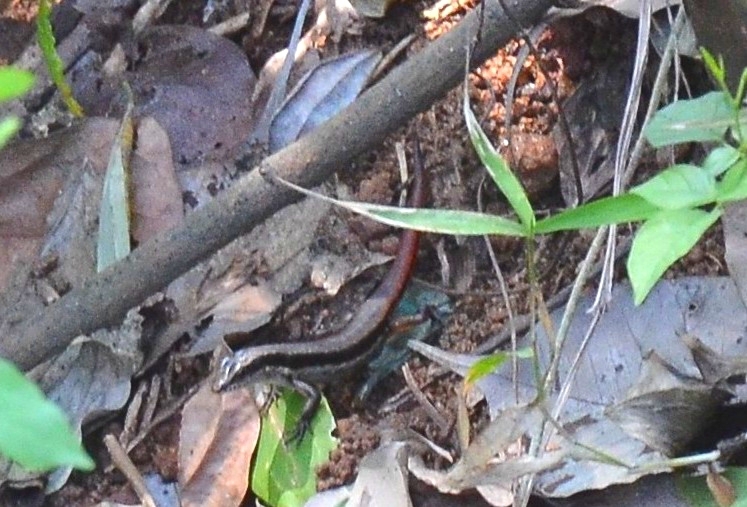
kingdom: Animalia
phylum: Chordata
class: Squamata
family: Scincidae
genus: Sphenomorphus
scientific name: Sphenomorphus dussumieri
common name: Dussumier's forest skink
